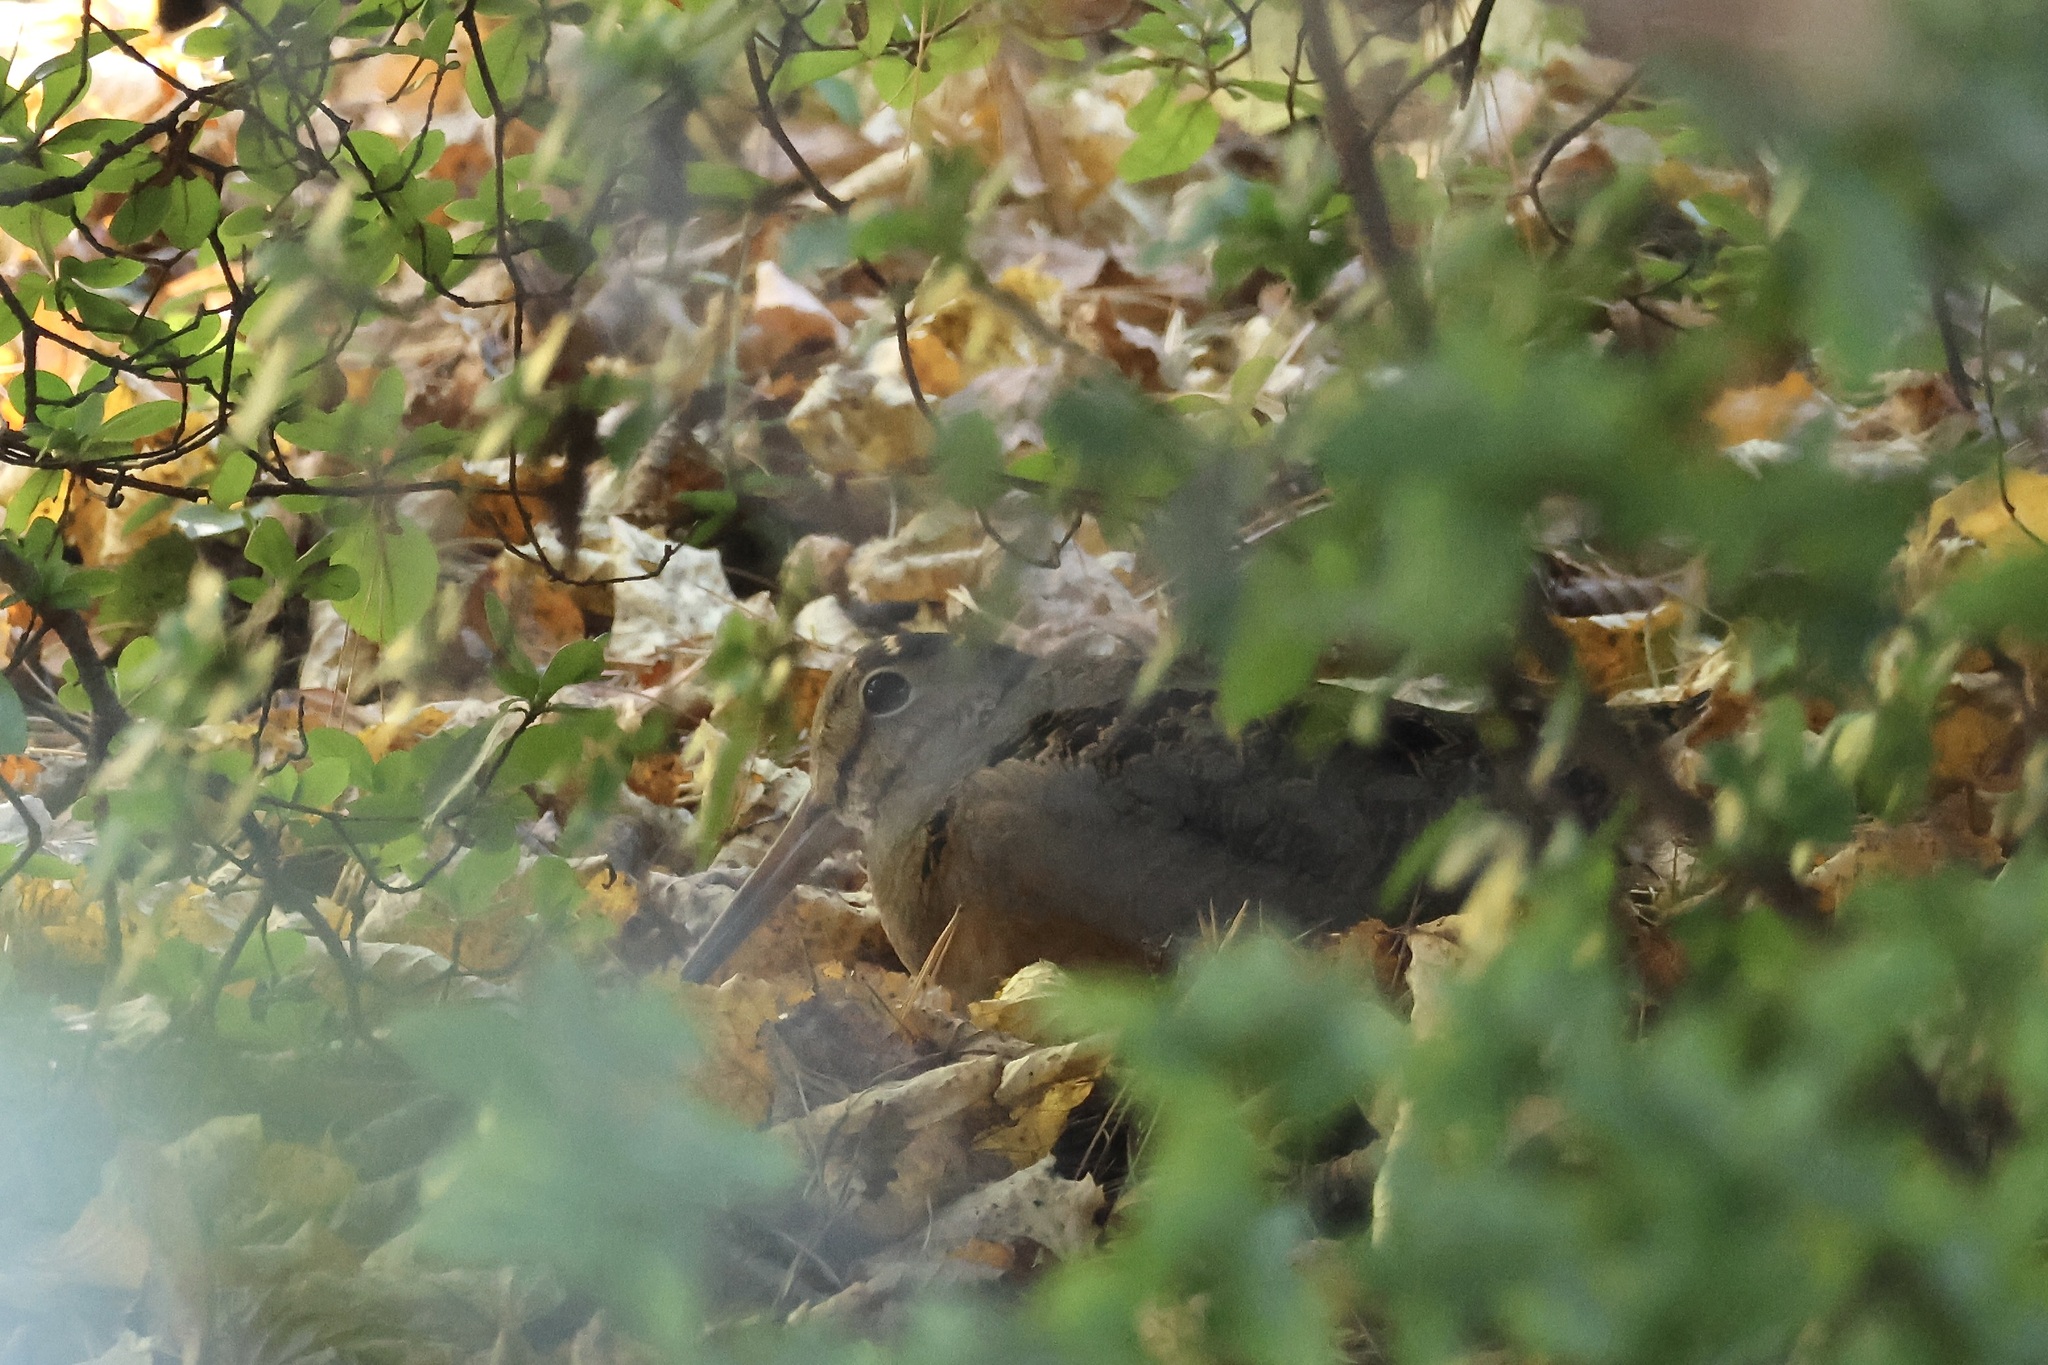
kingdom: Animalia
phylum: Chordata
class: Aves
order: Charadriiformes
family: Scolopacidae
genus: Scolopax
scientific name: Scolopax minor
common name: American woodcock
